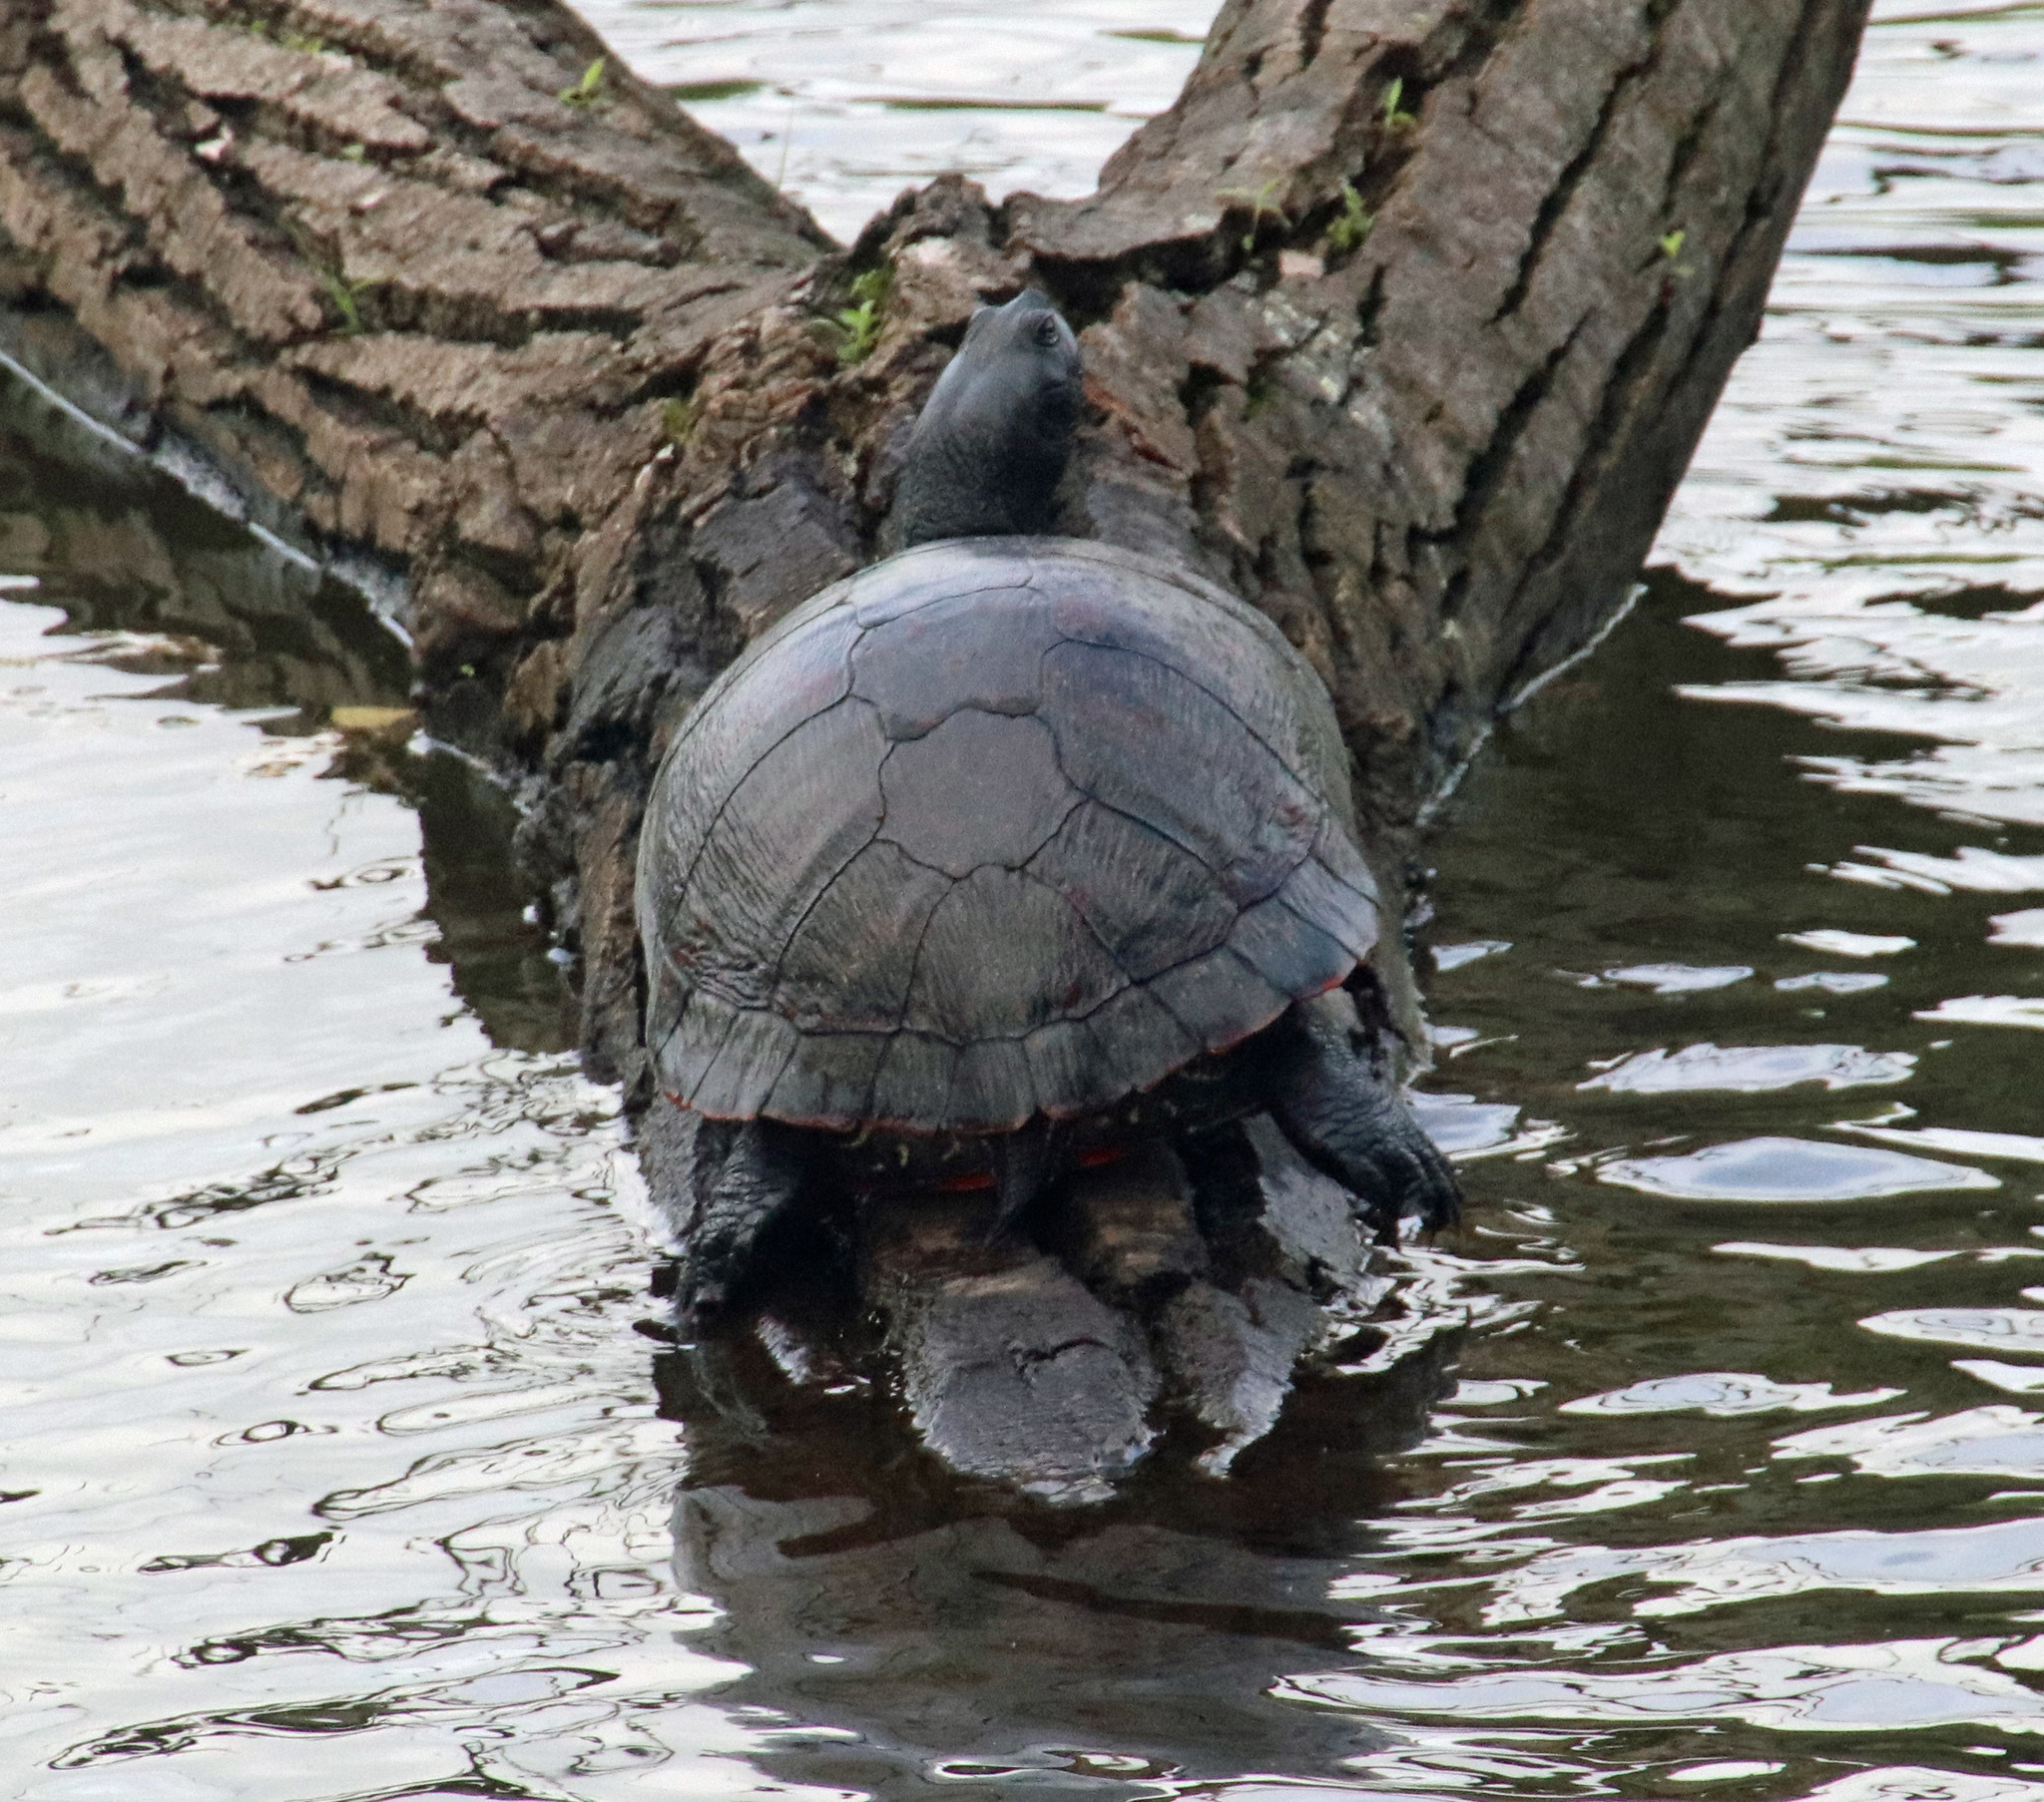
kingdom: Animalia
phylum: Chordata
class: Testudines
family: Emydidae
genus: Pseudemys
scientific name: Pseudemys rubriventris
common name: American red-bellied turtle
